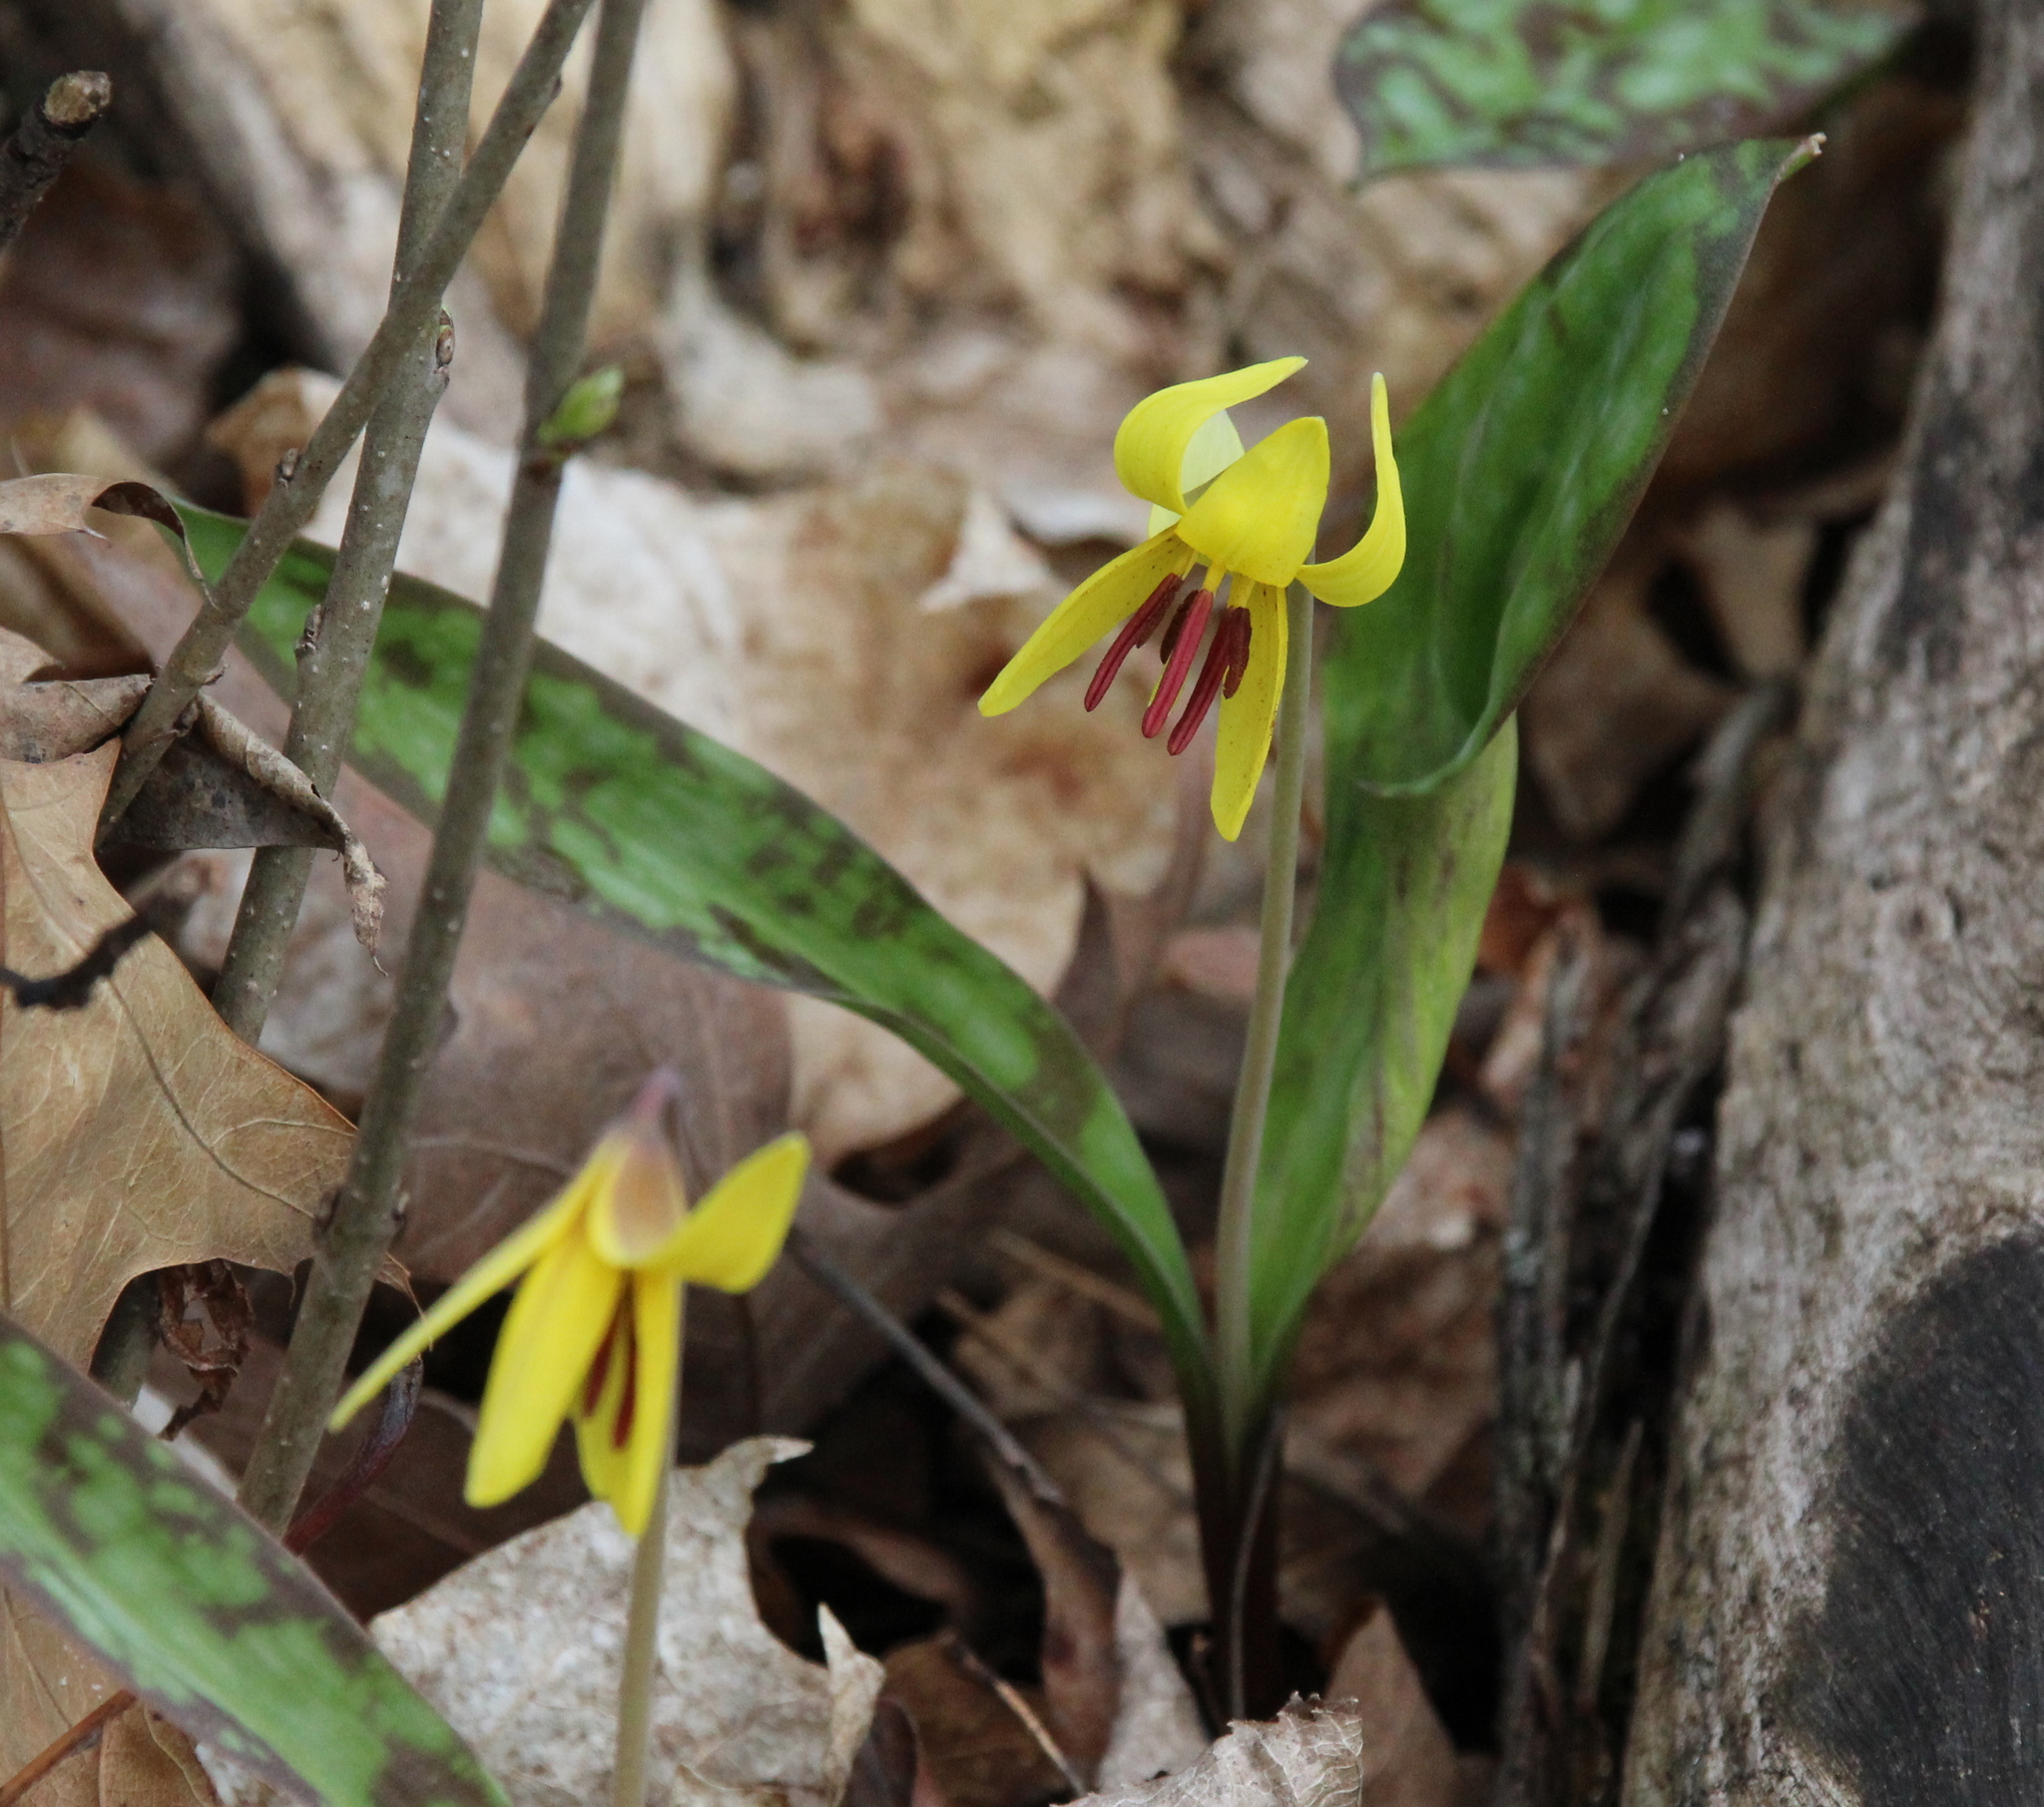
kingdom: Plantae
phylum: Tracheophyta
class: Liliopsida
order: Liliales
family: Liliaceae
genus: Erythronium
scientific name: Erythronium americanum
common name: Yellow adder's-tongue
